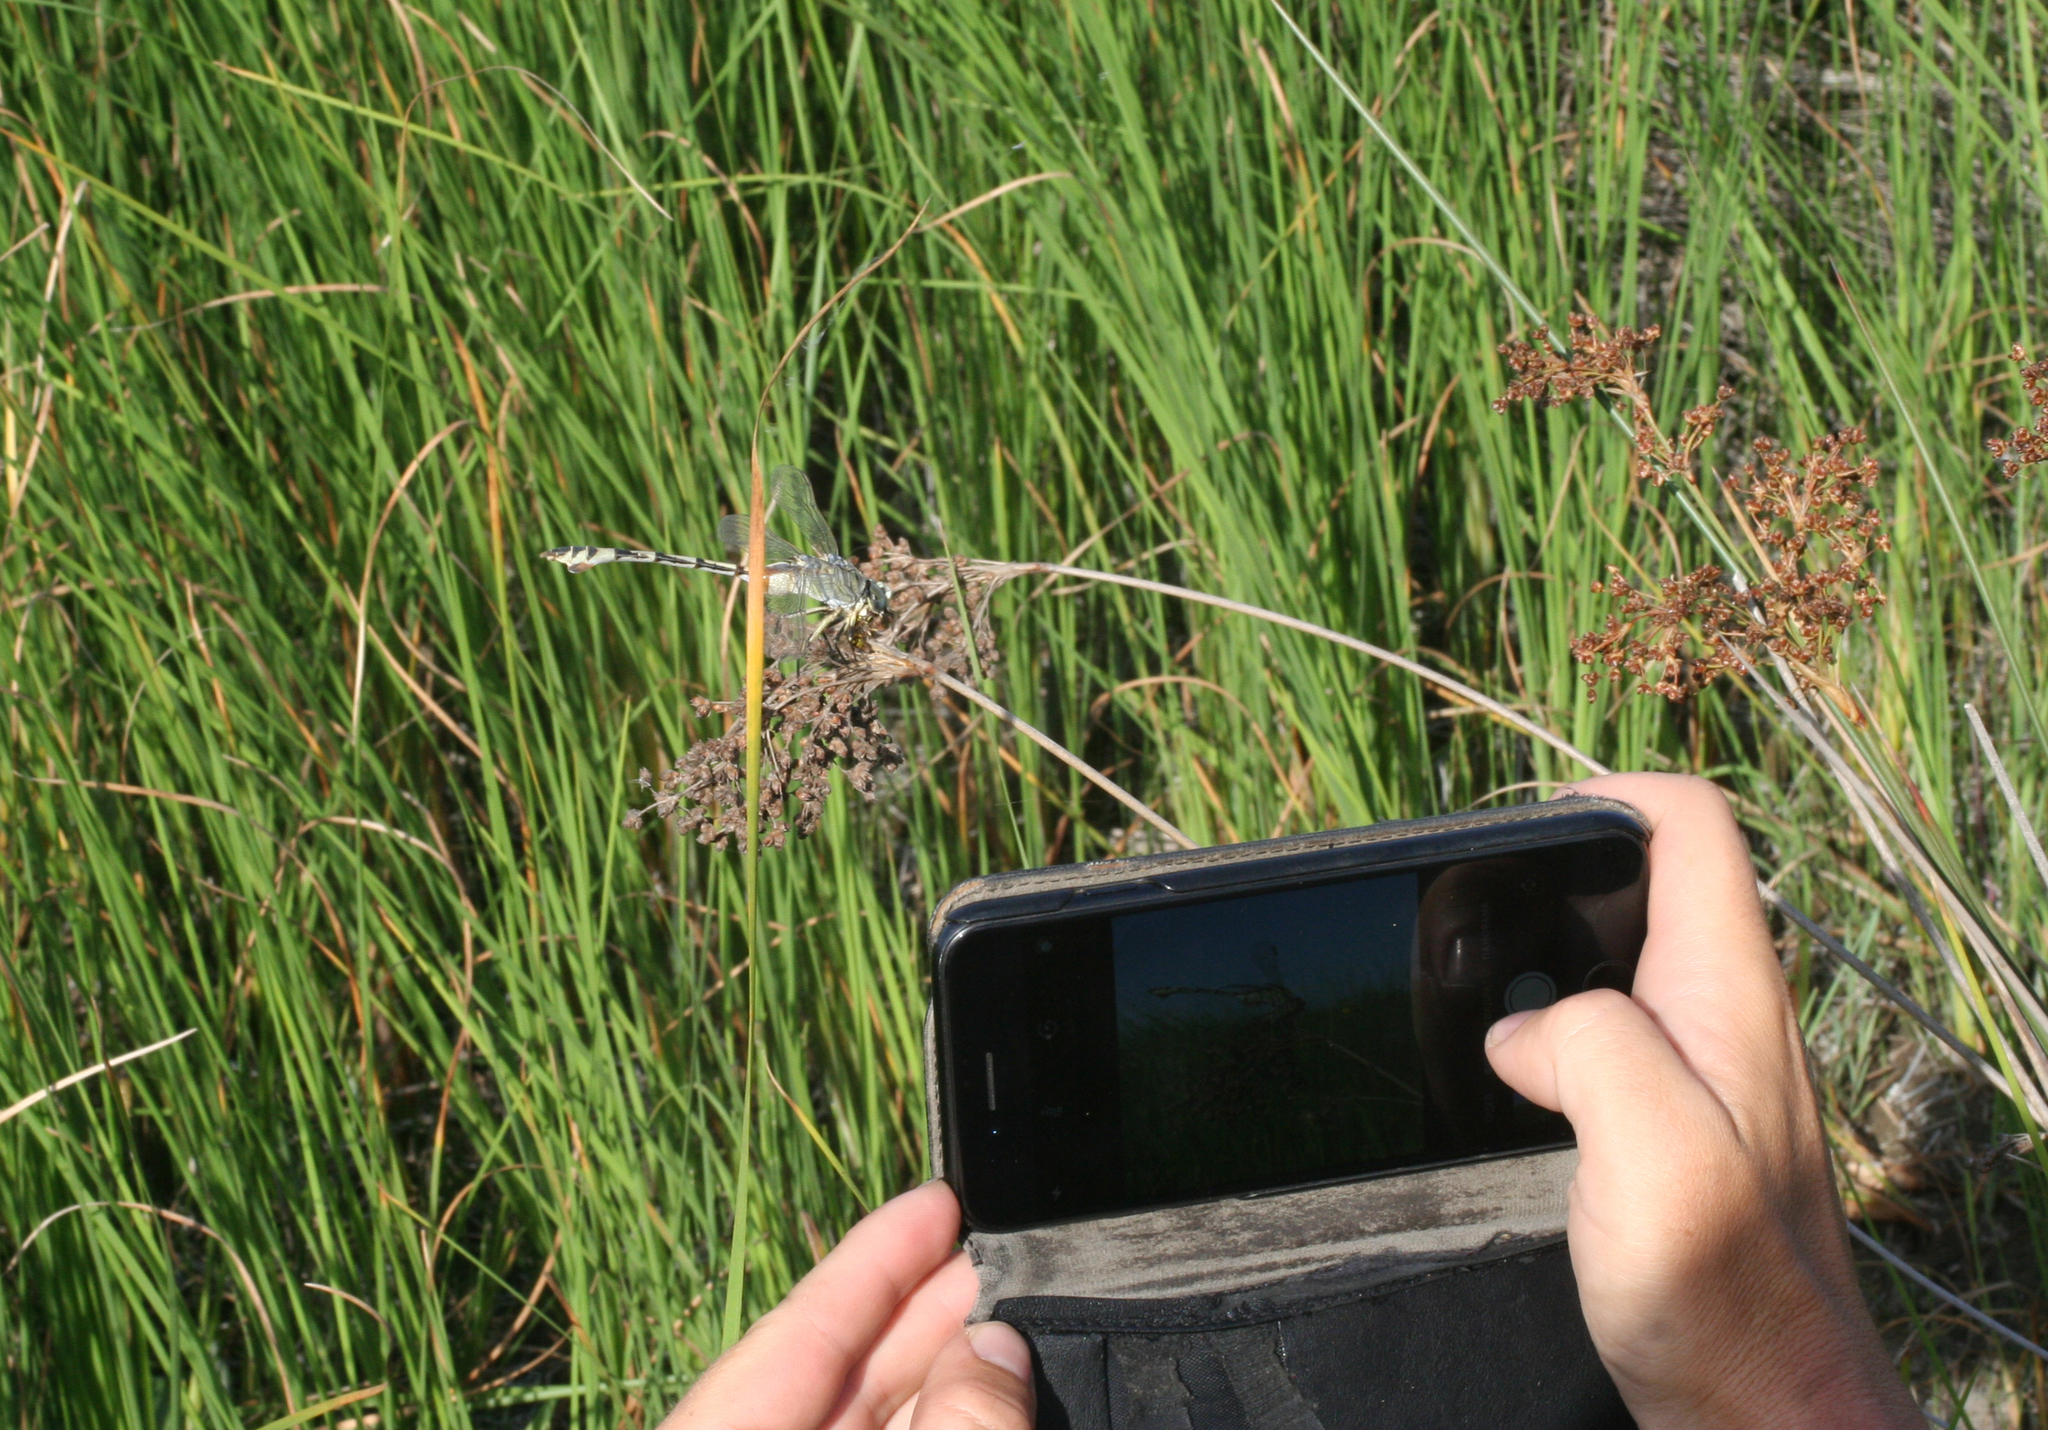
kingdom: Animalia
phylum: Arthropoda
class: Insecta
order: Odonata
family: Gomphidae
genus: Lindenia
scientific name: Lindenia tetraphylla
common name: Bladetail
